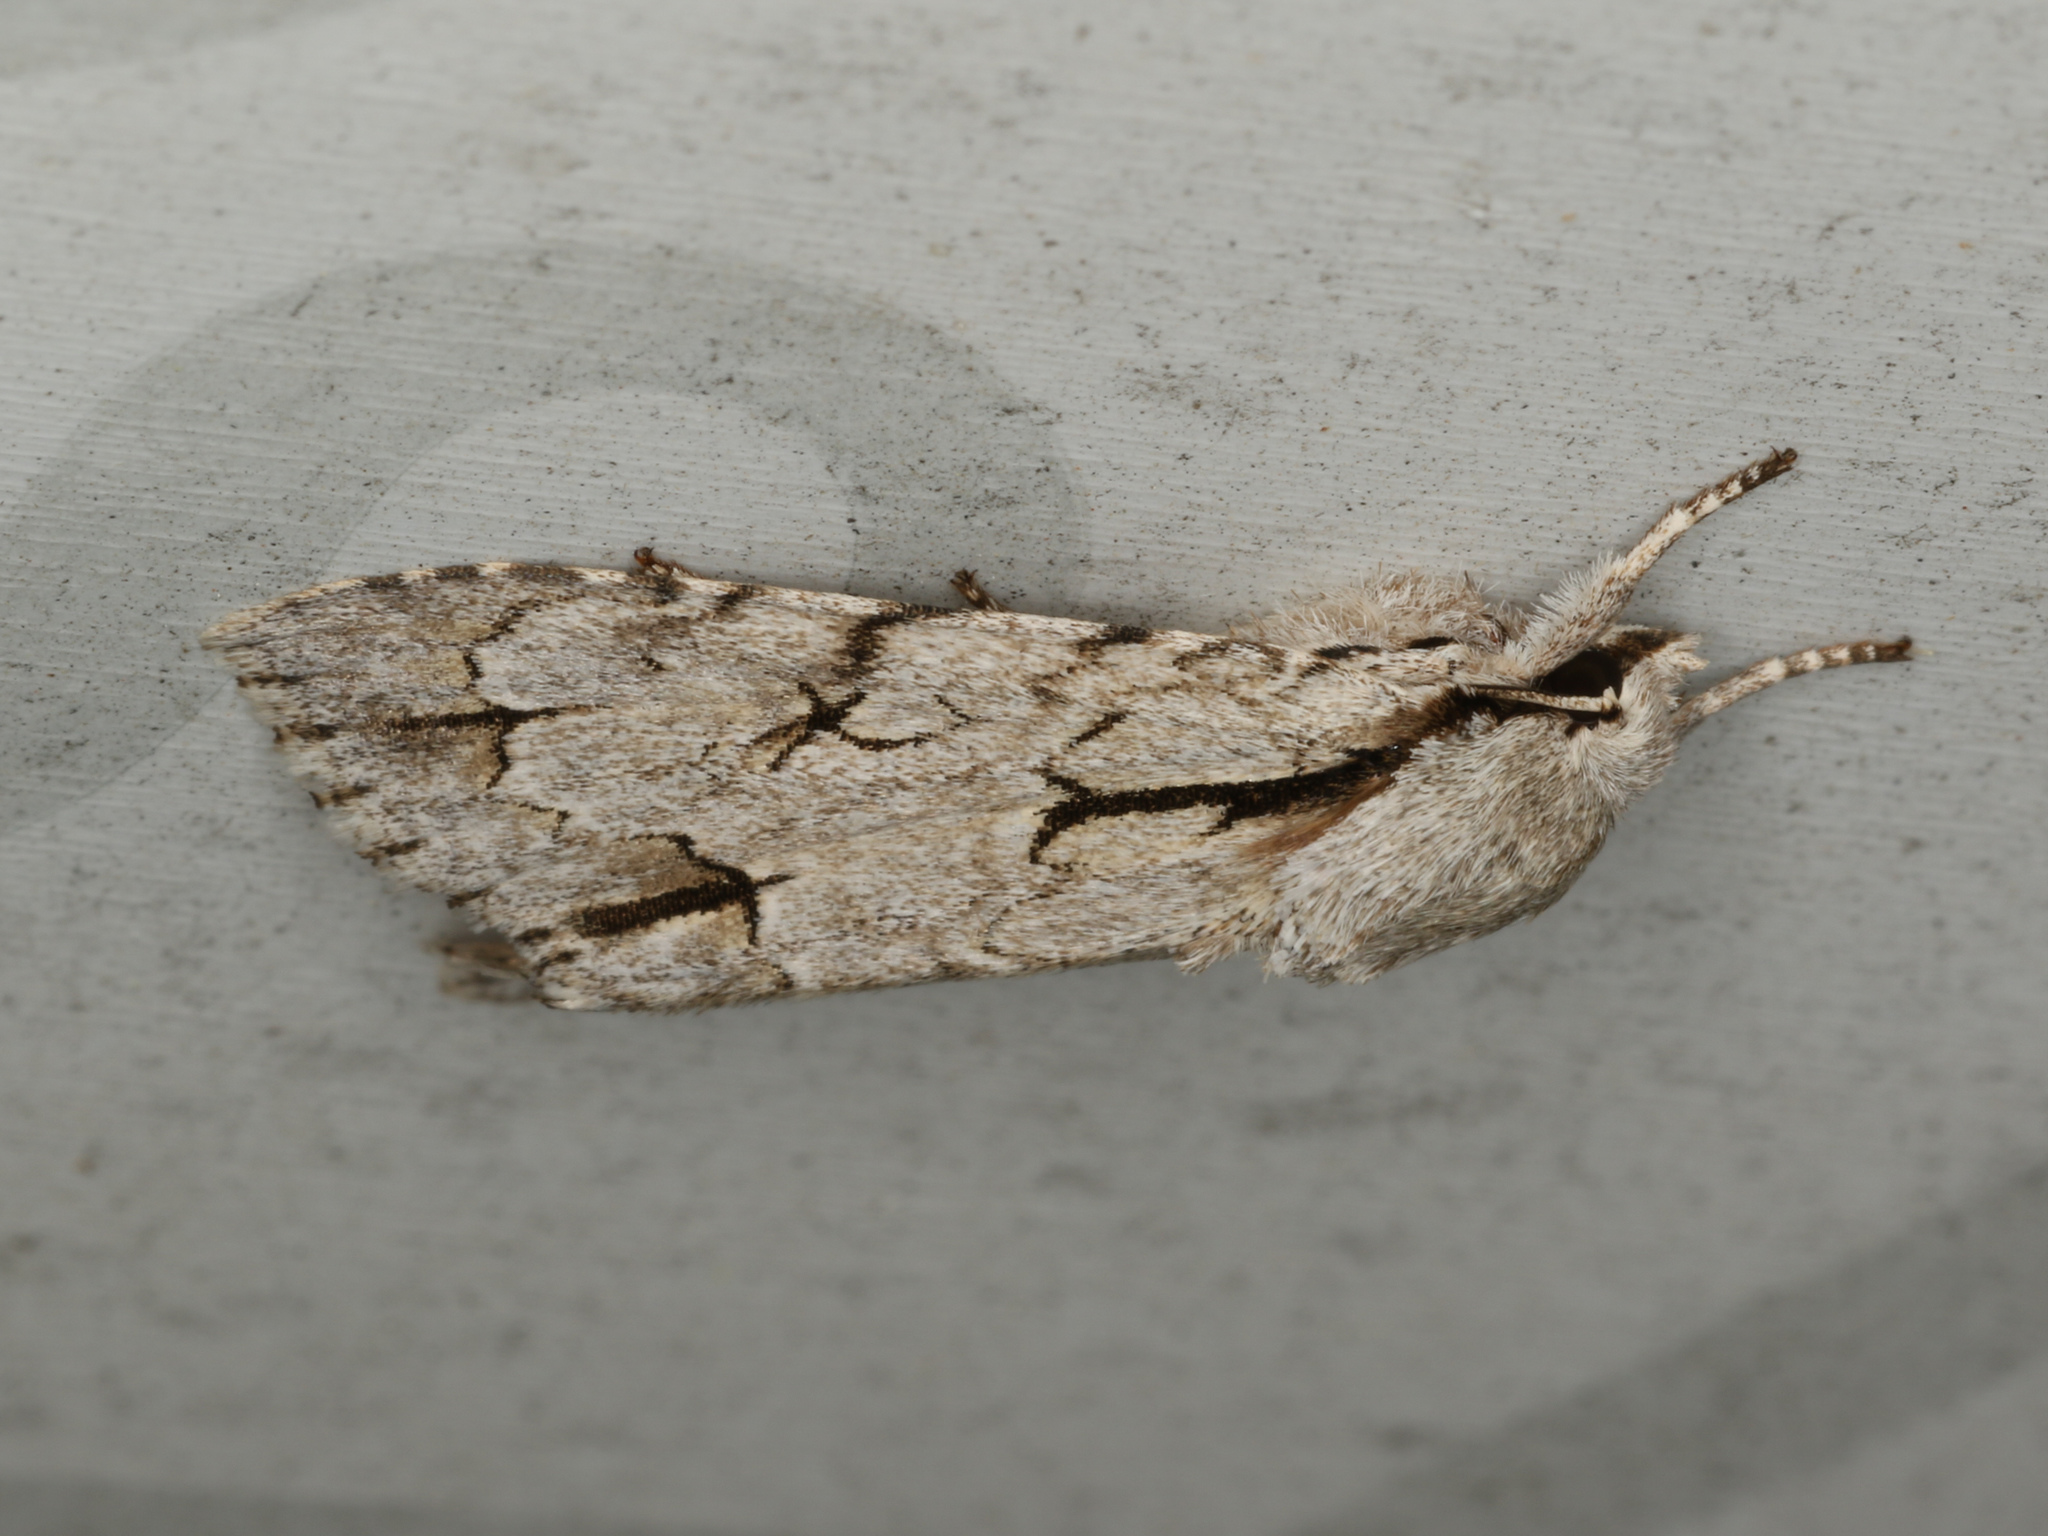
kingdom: Animalia
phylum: Arthropoda
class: Insecta
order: Lepidoptera
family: Noctuidae
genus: Acronicta
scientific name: Acronicta
